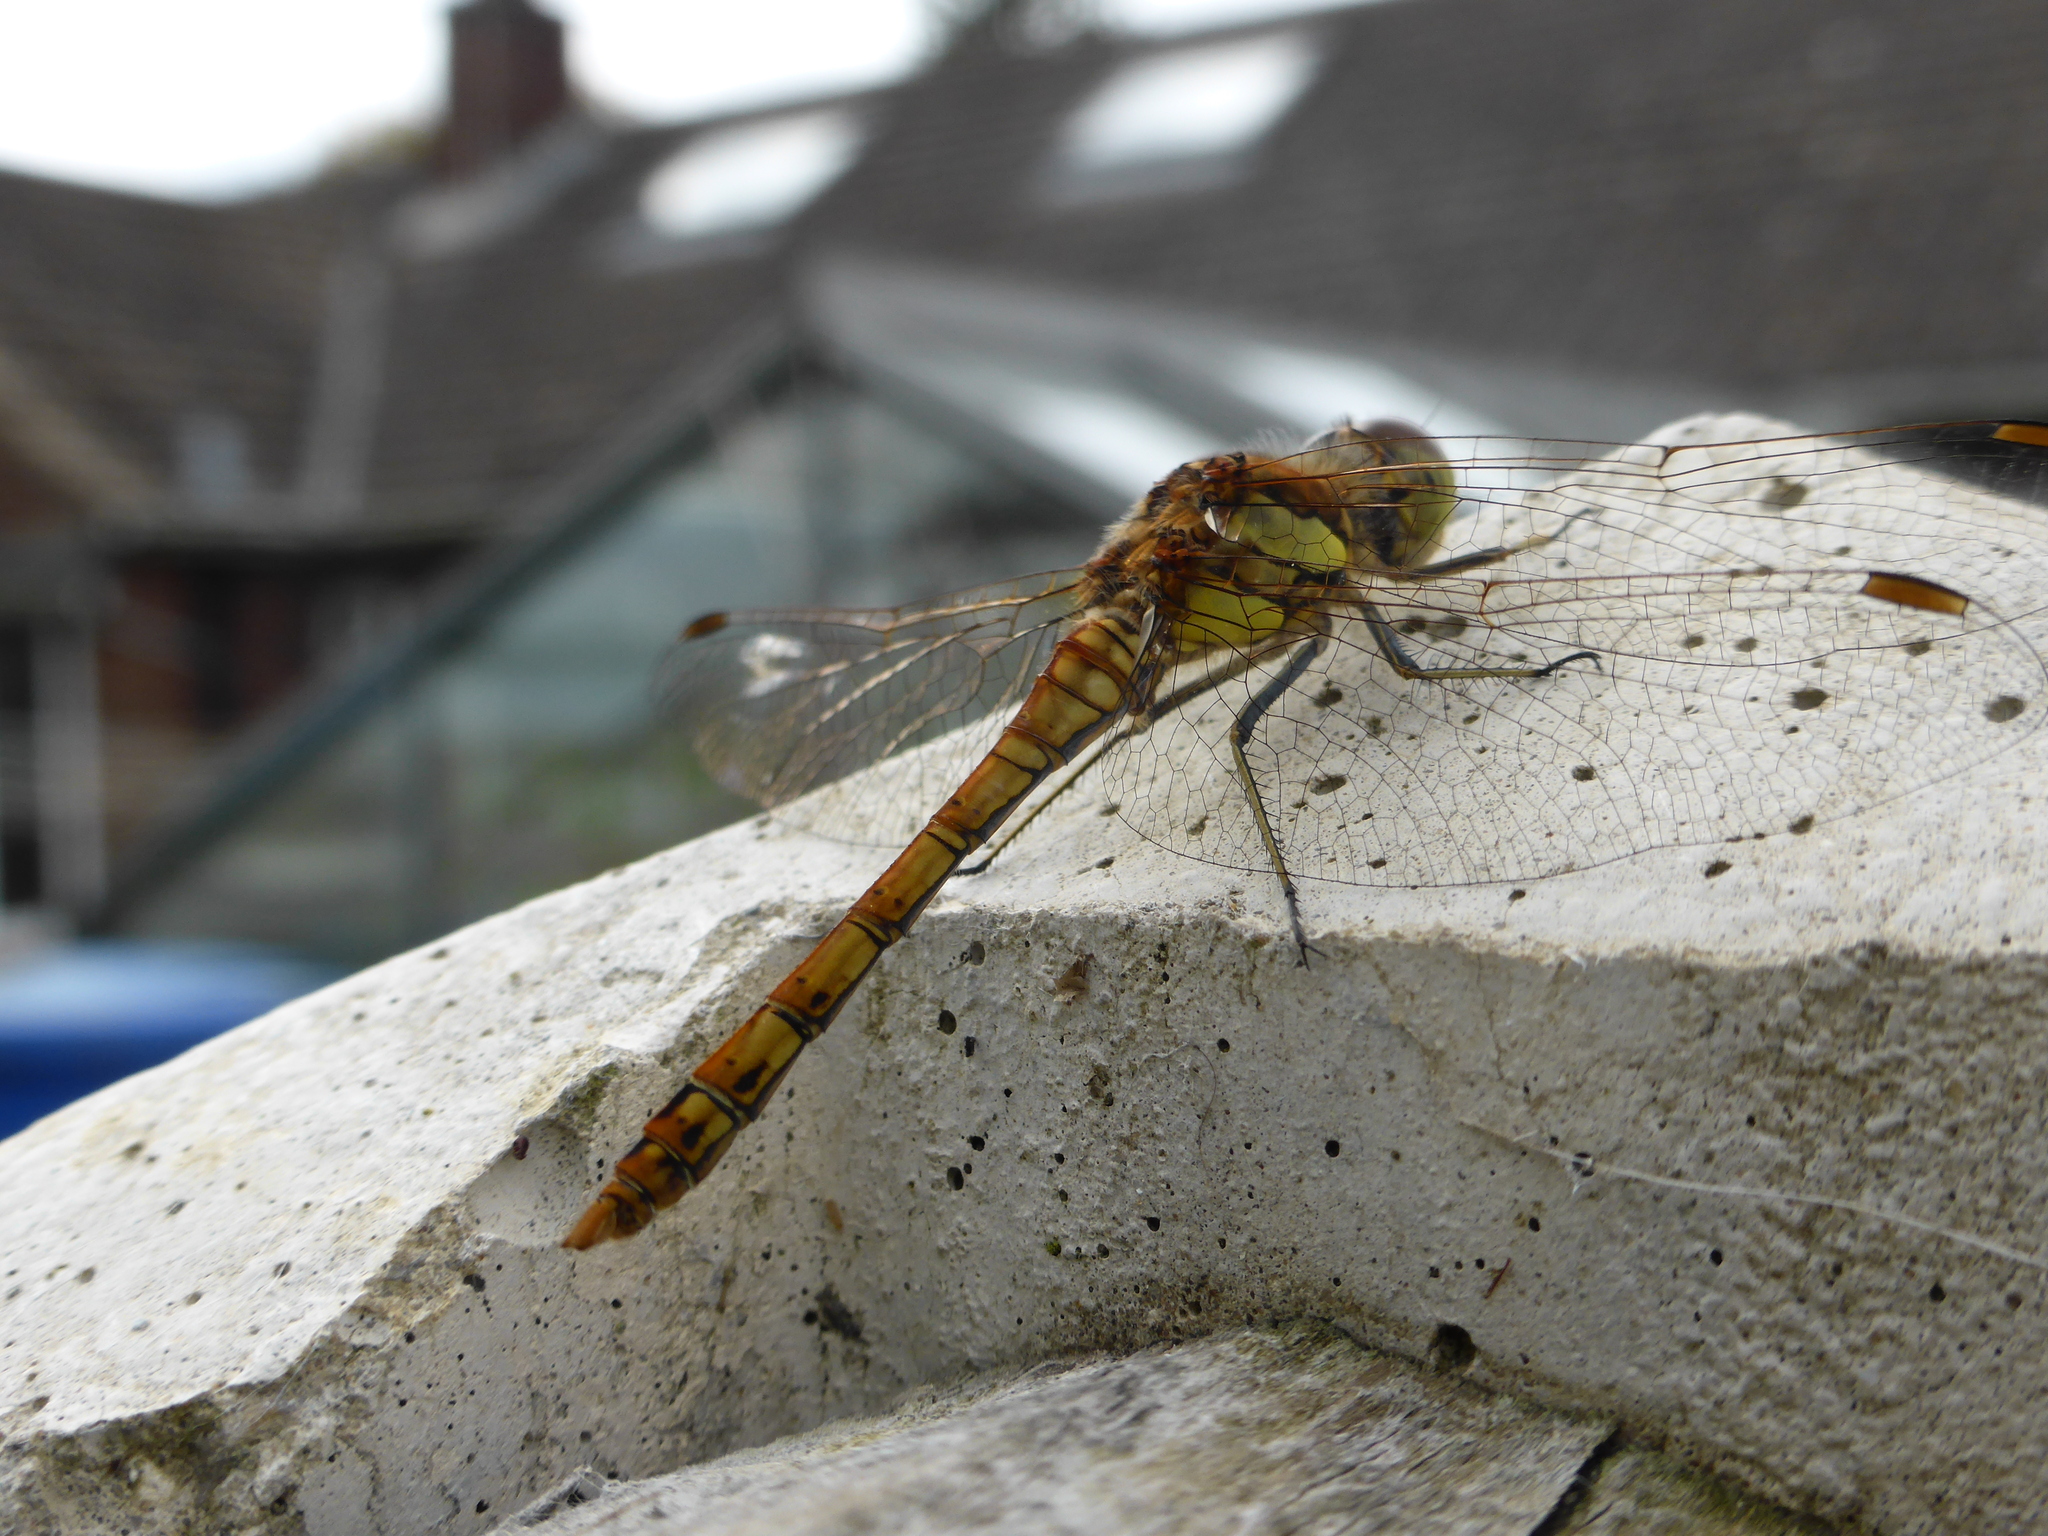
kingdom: Animalia
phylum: Arthropoda
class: Insecta
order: Odonata
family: Libellulidae
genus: Sympetrum
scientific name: Sympetrum striolatum
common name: Common darter
